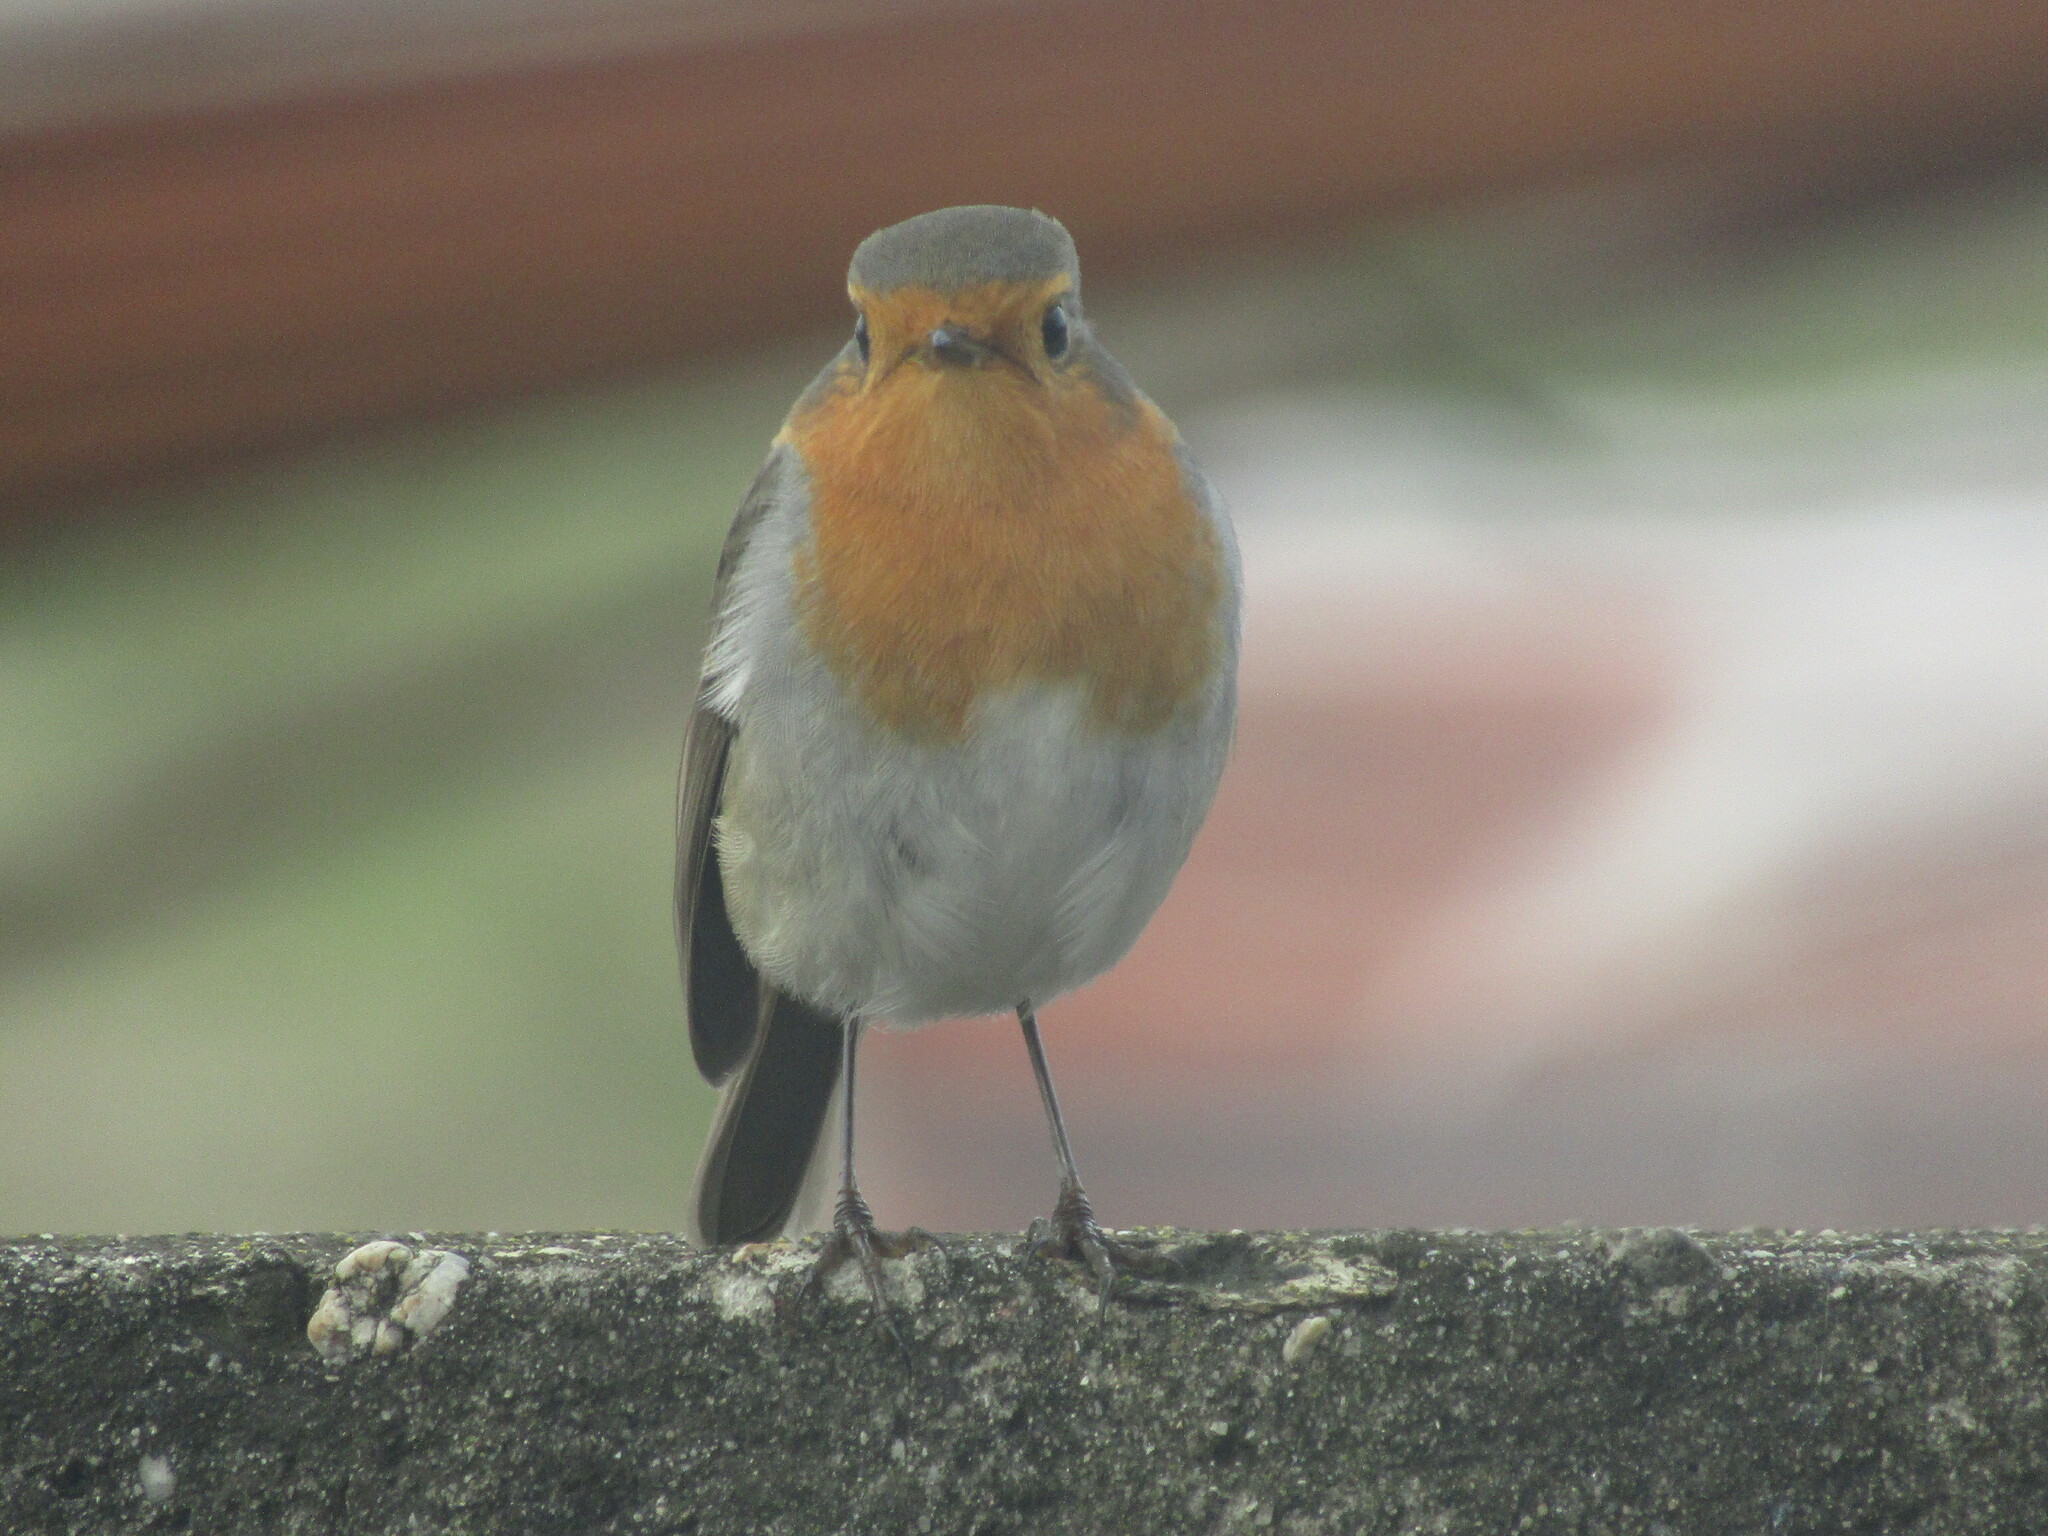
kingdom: Animalia
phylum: Chordata
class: Aves
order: Passeriformes
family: Muscicapidae
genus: Erithacus
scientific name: Erithacus rubecula
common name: European robin
